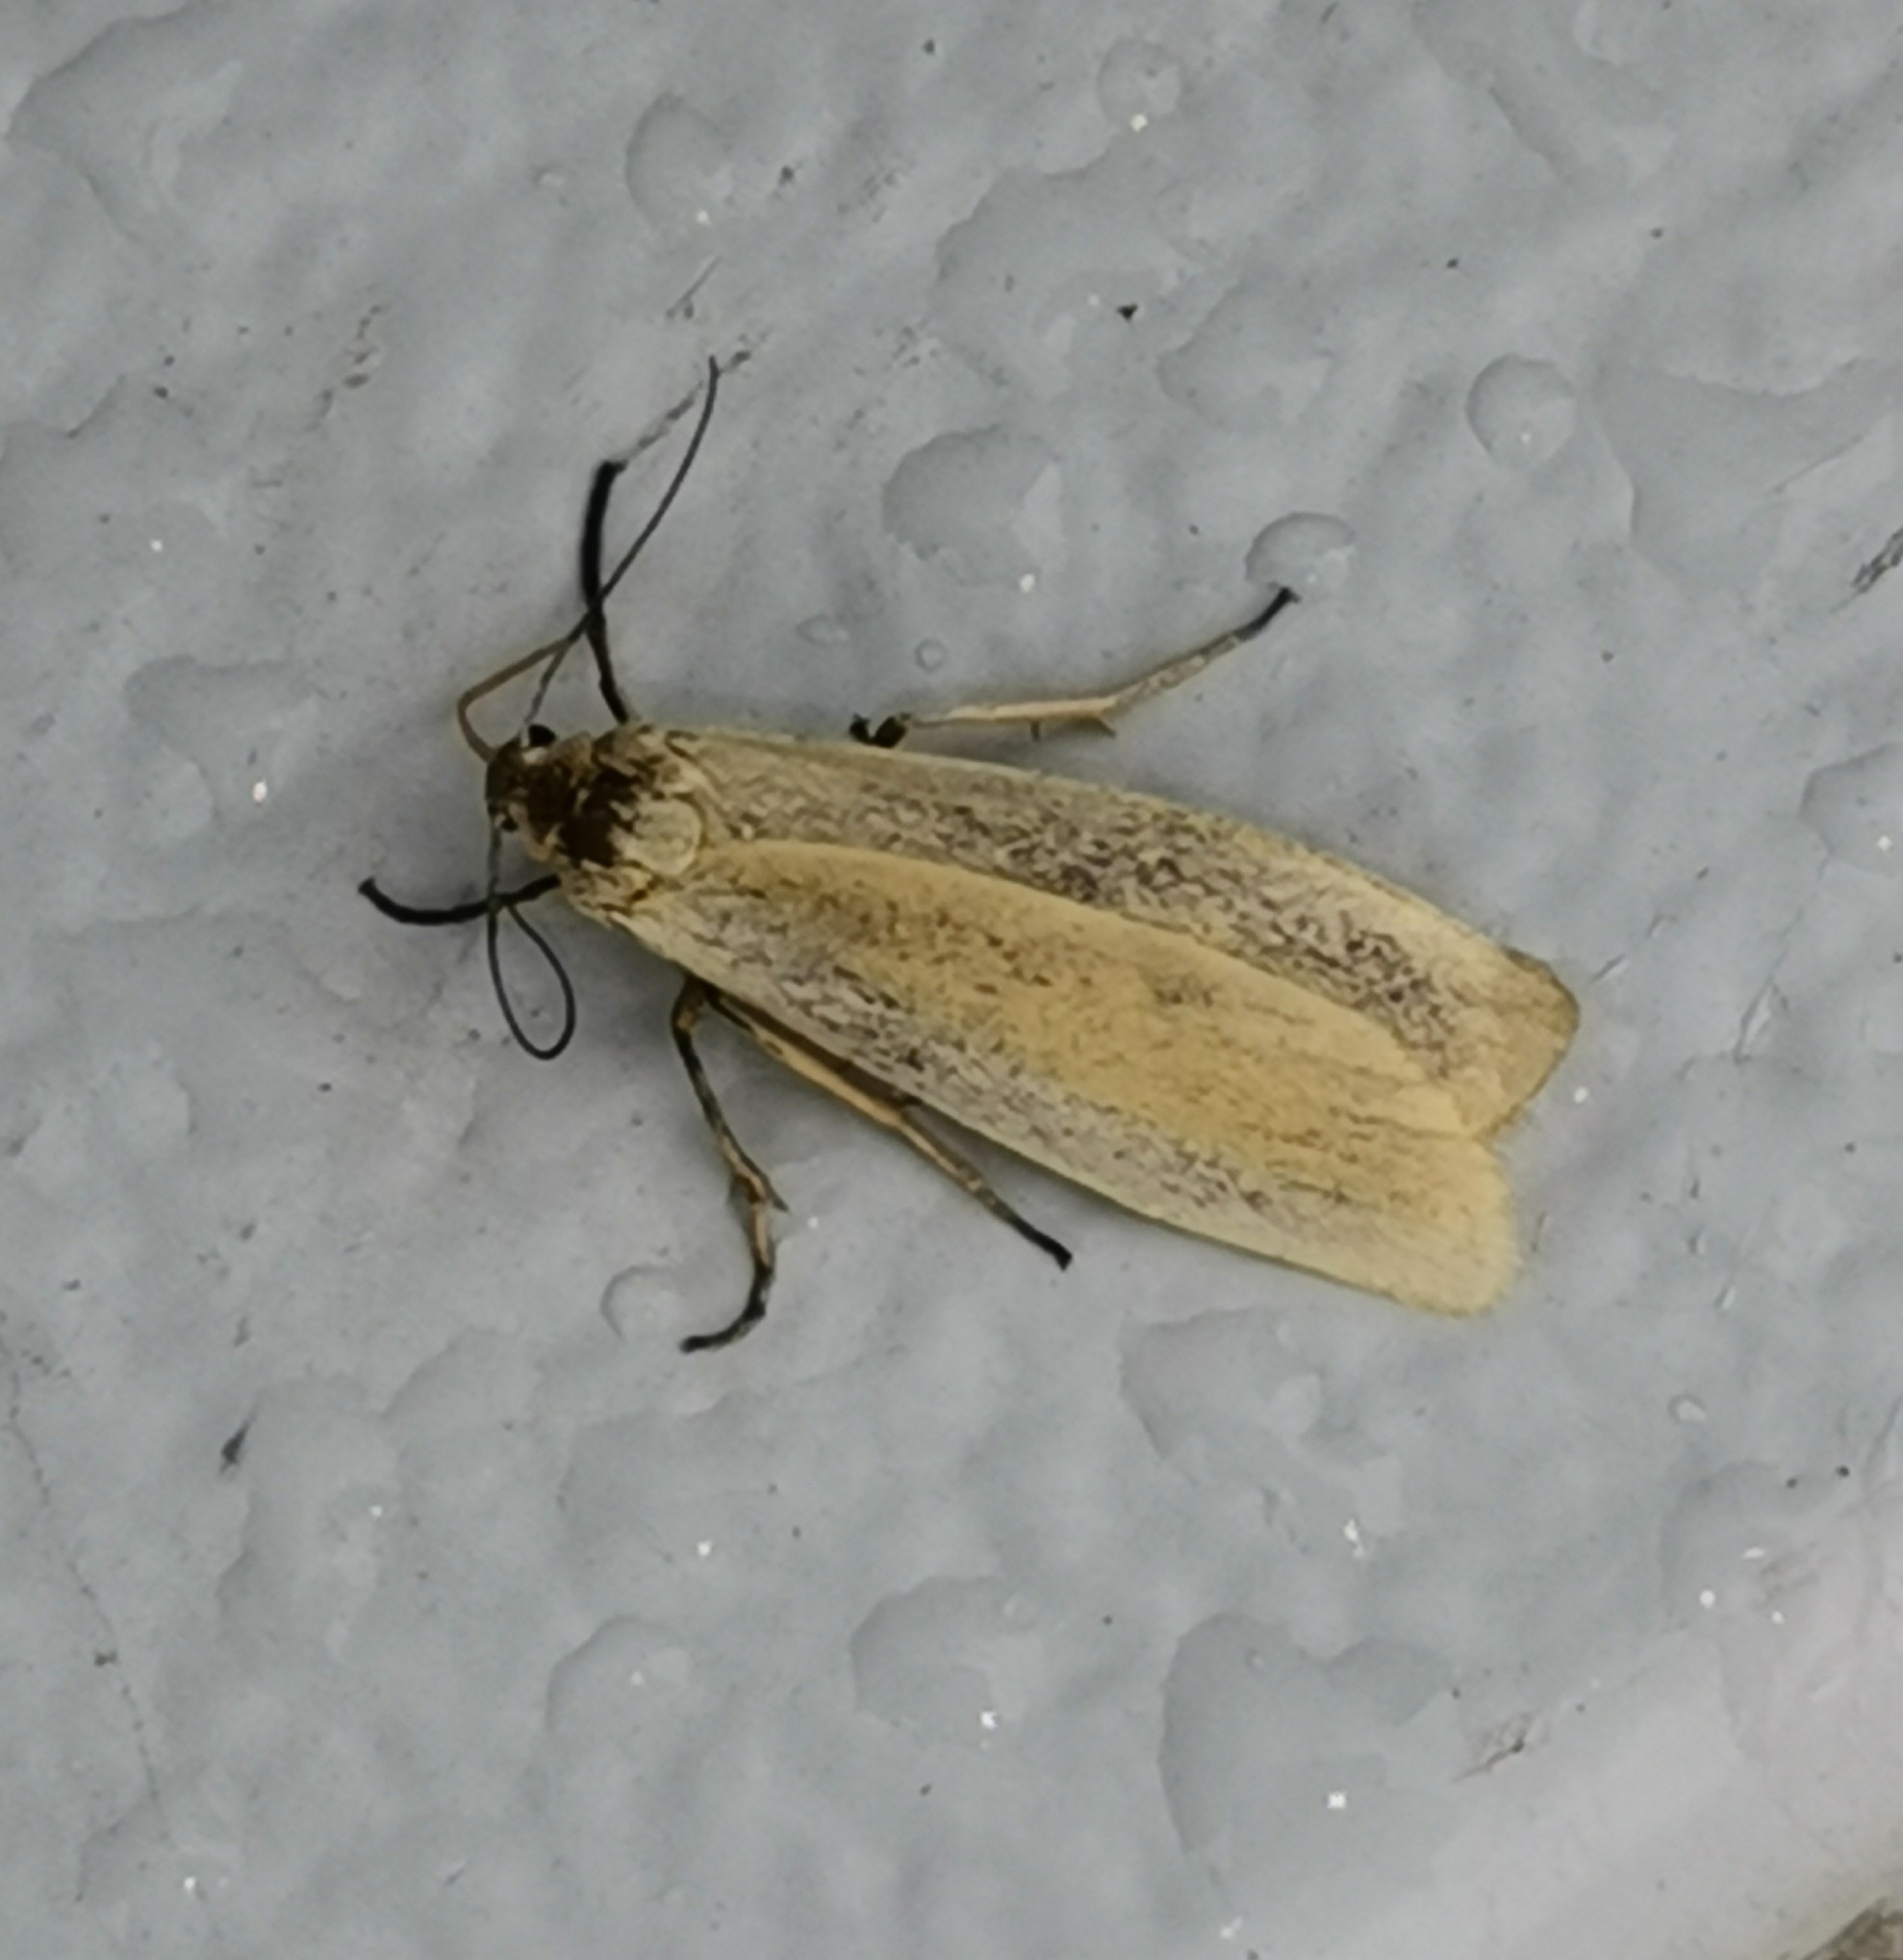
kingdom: Animalia
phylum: Arthropoda
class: Insecta
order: Lepidoptera
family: Erebidae
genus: Indalia
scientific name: Indalia lutarella
